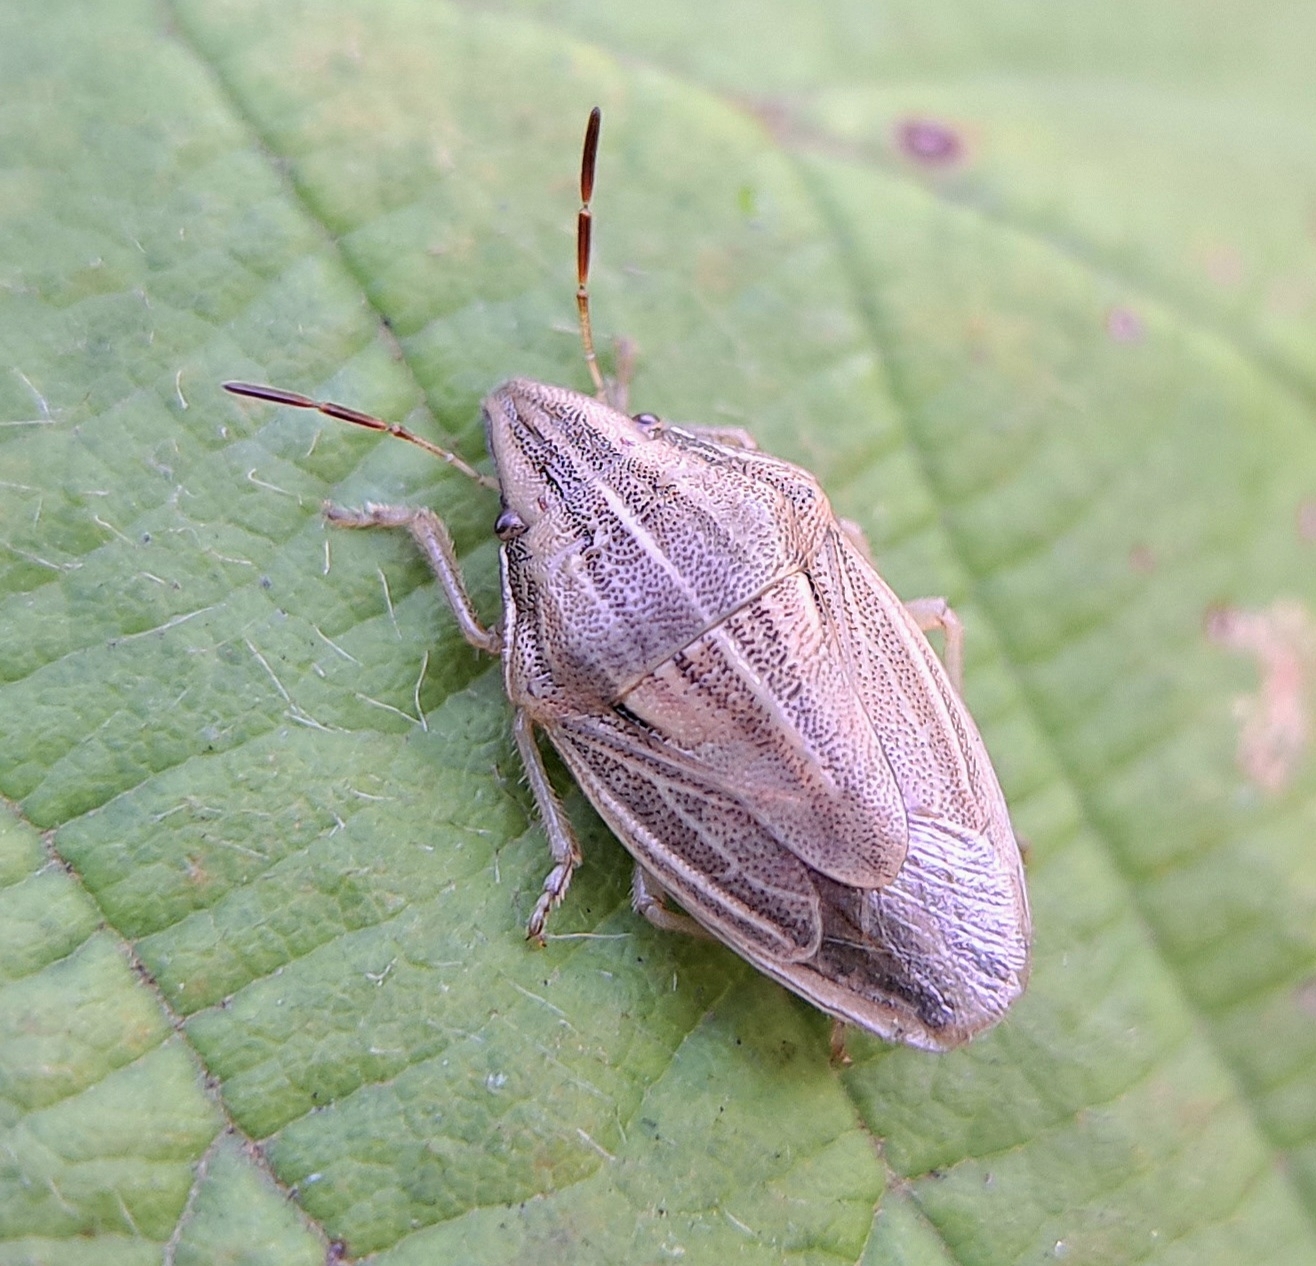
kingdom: Animalia
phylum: Arthropoda
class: Insecta
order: Hemiptera
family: Pentatomidae
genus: Aelia
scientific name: Aelia acuminata
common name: Bishop's mitre
